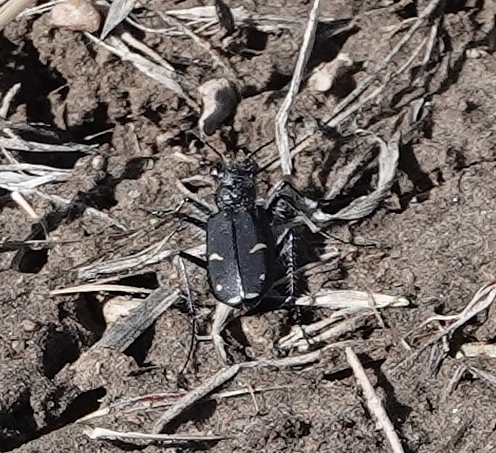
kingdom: Animalia
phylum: Arthropoda
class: Insecta
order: Coleoptera
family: Carabidae
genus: Cicindela
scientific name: Cicindela purpurea
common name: Cow path tiger beetle
